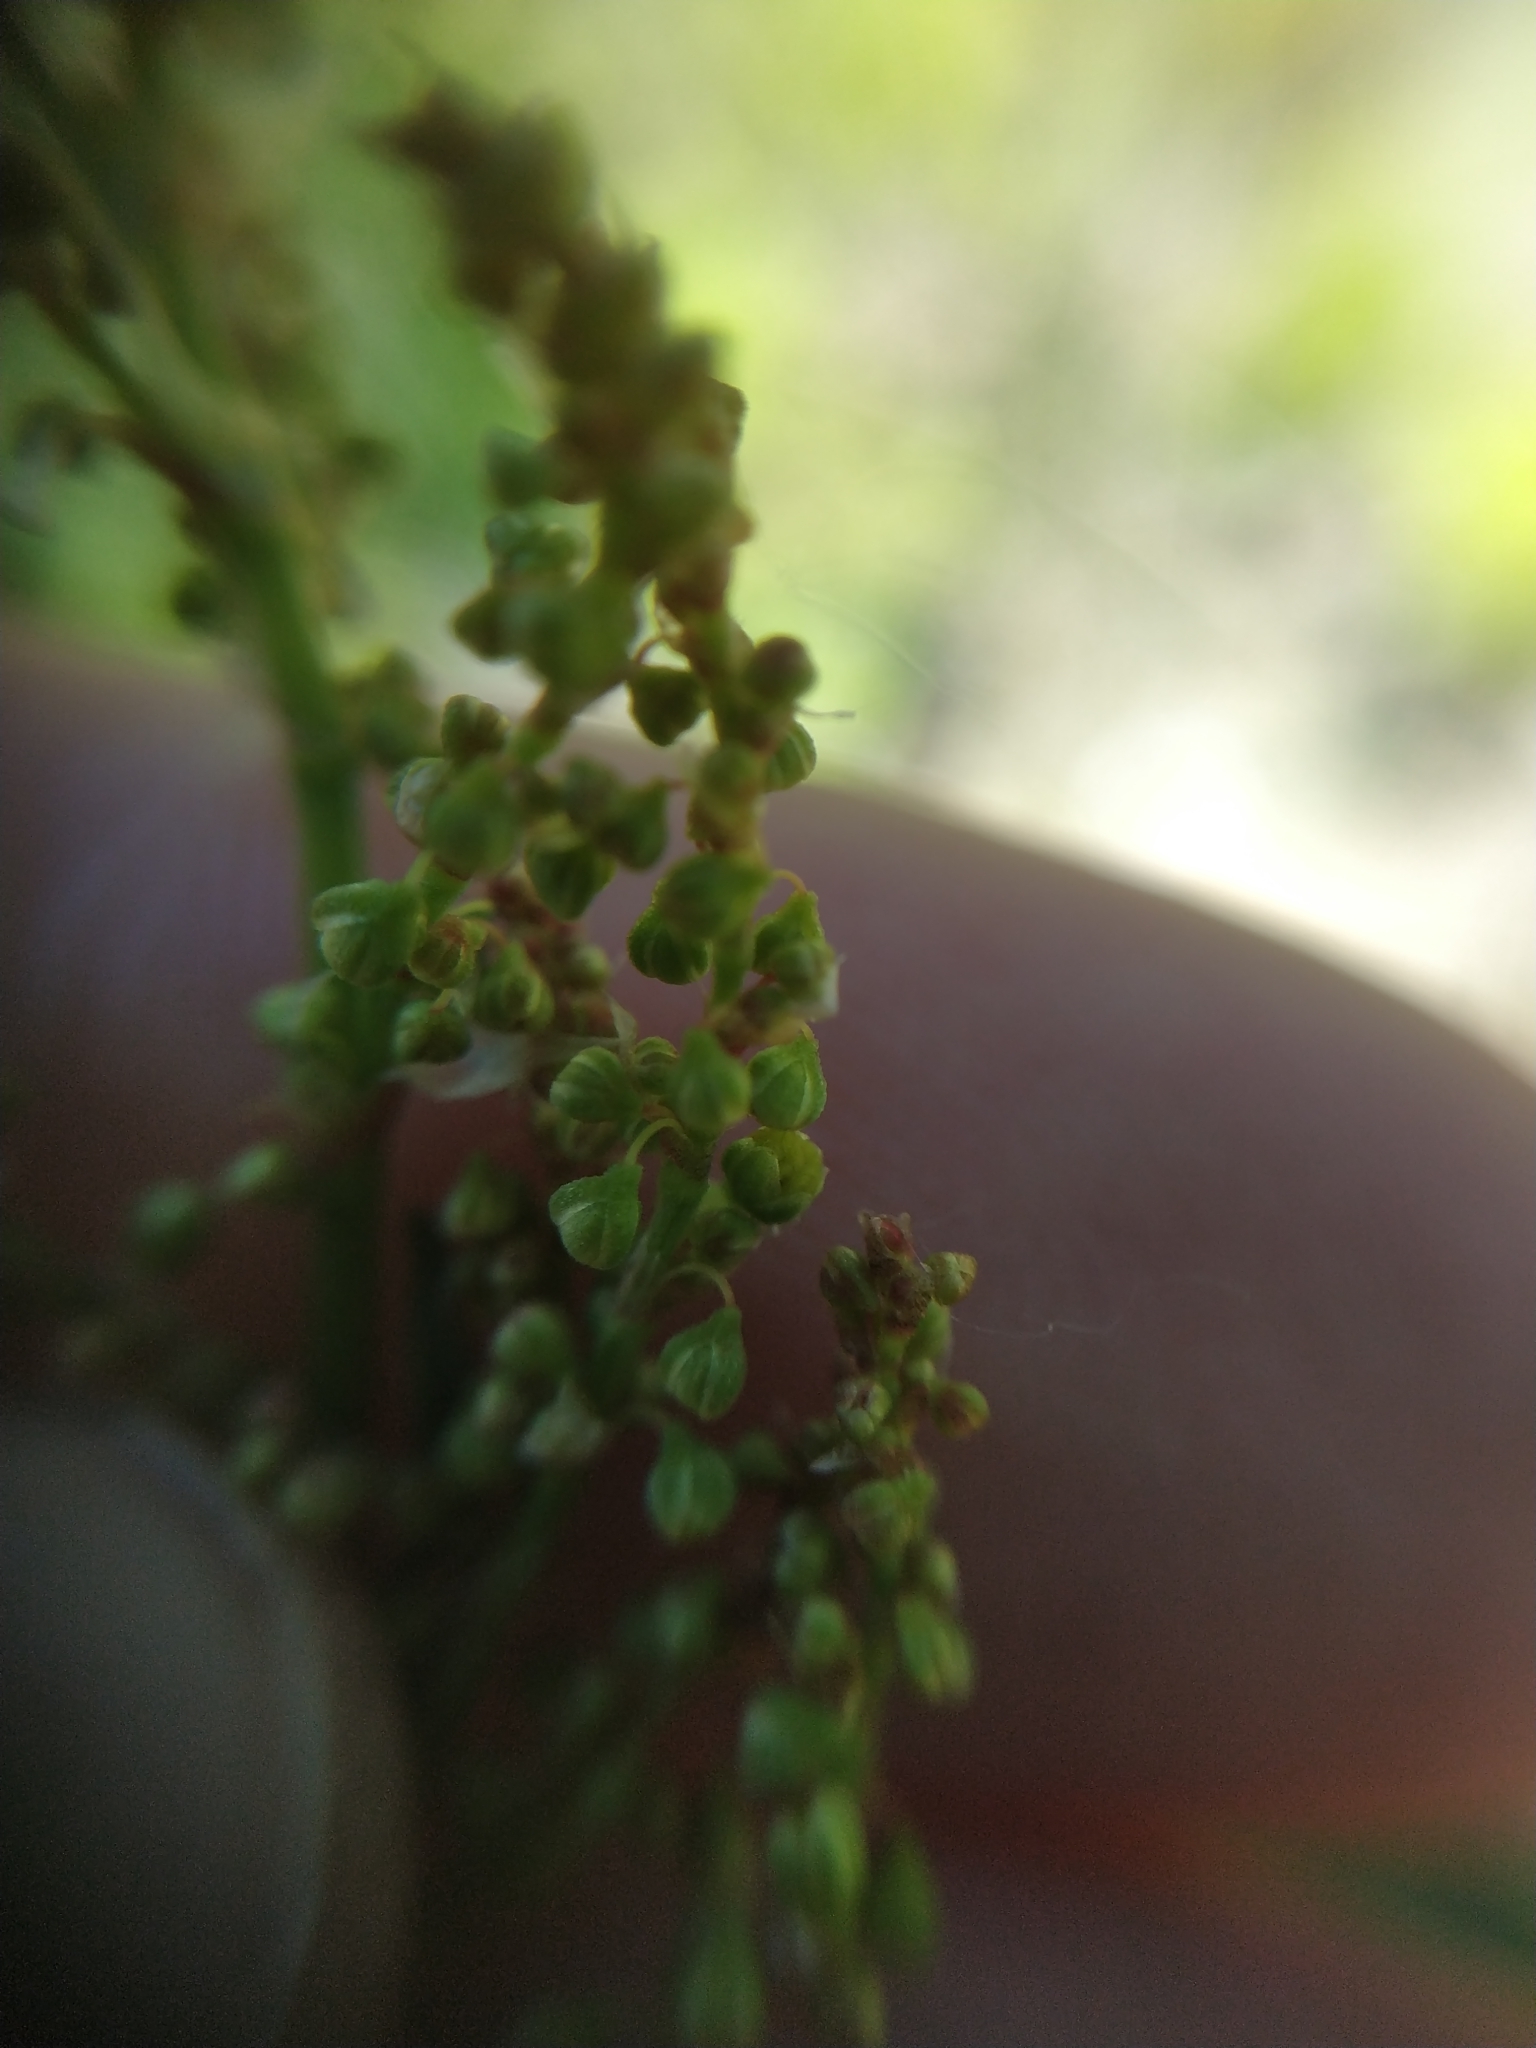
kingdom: Plantae
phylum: Tracheophyta
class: Magnoliopsida
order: Caryophyllales
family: Polygonaceae
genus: Rumex
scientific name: Rumex acetosella
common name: Common sheep sorrel
